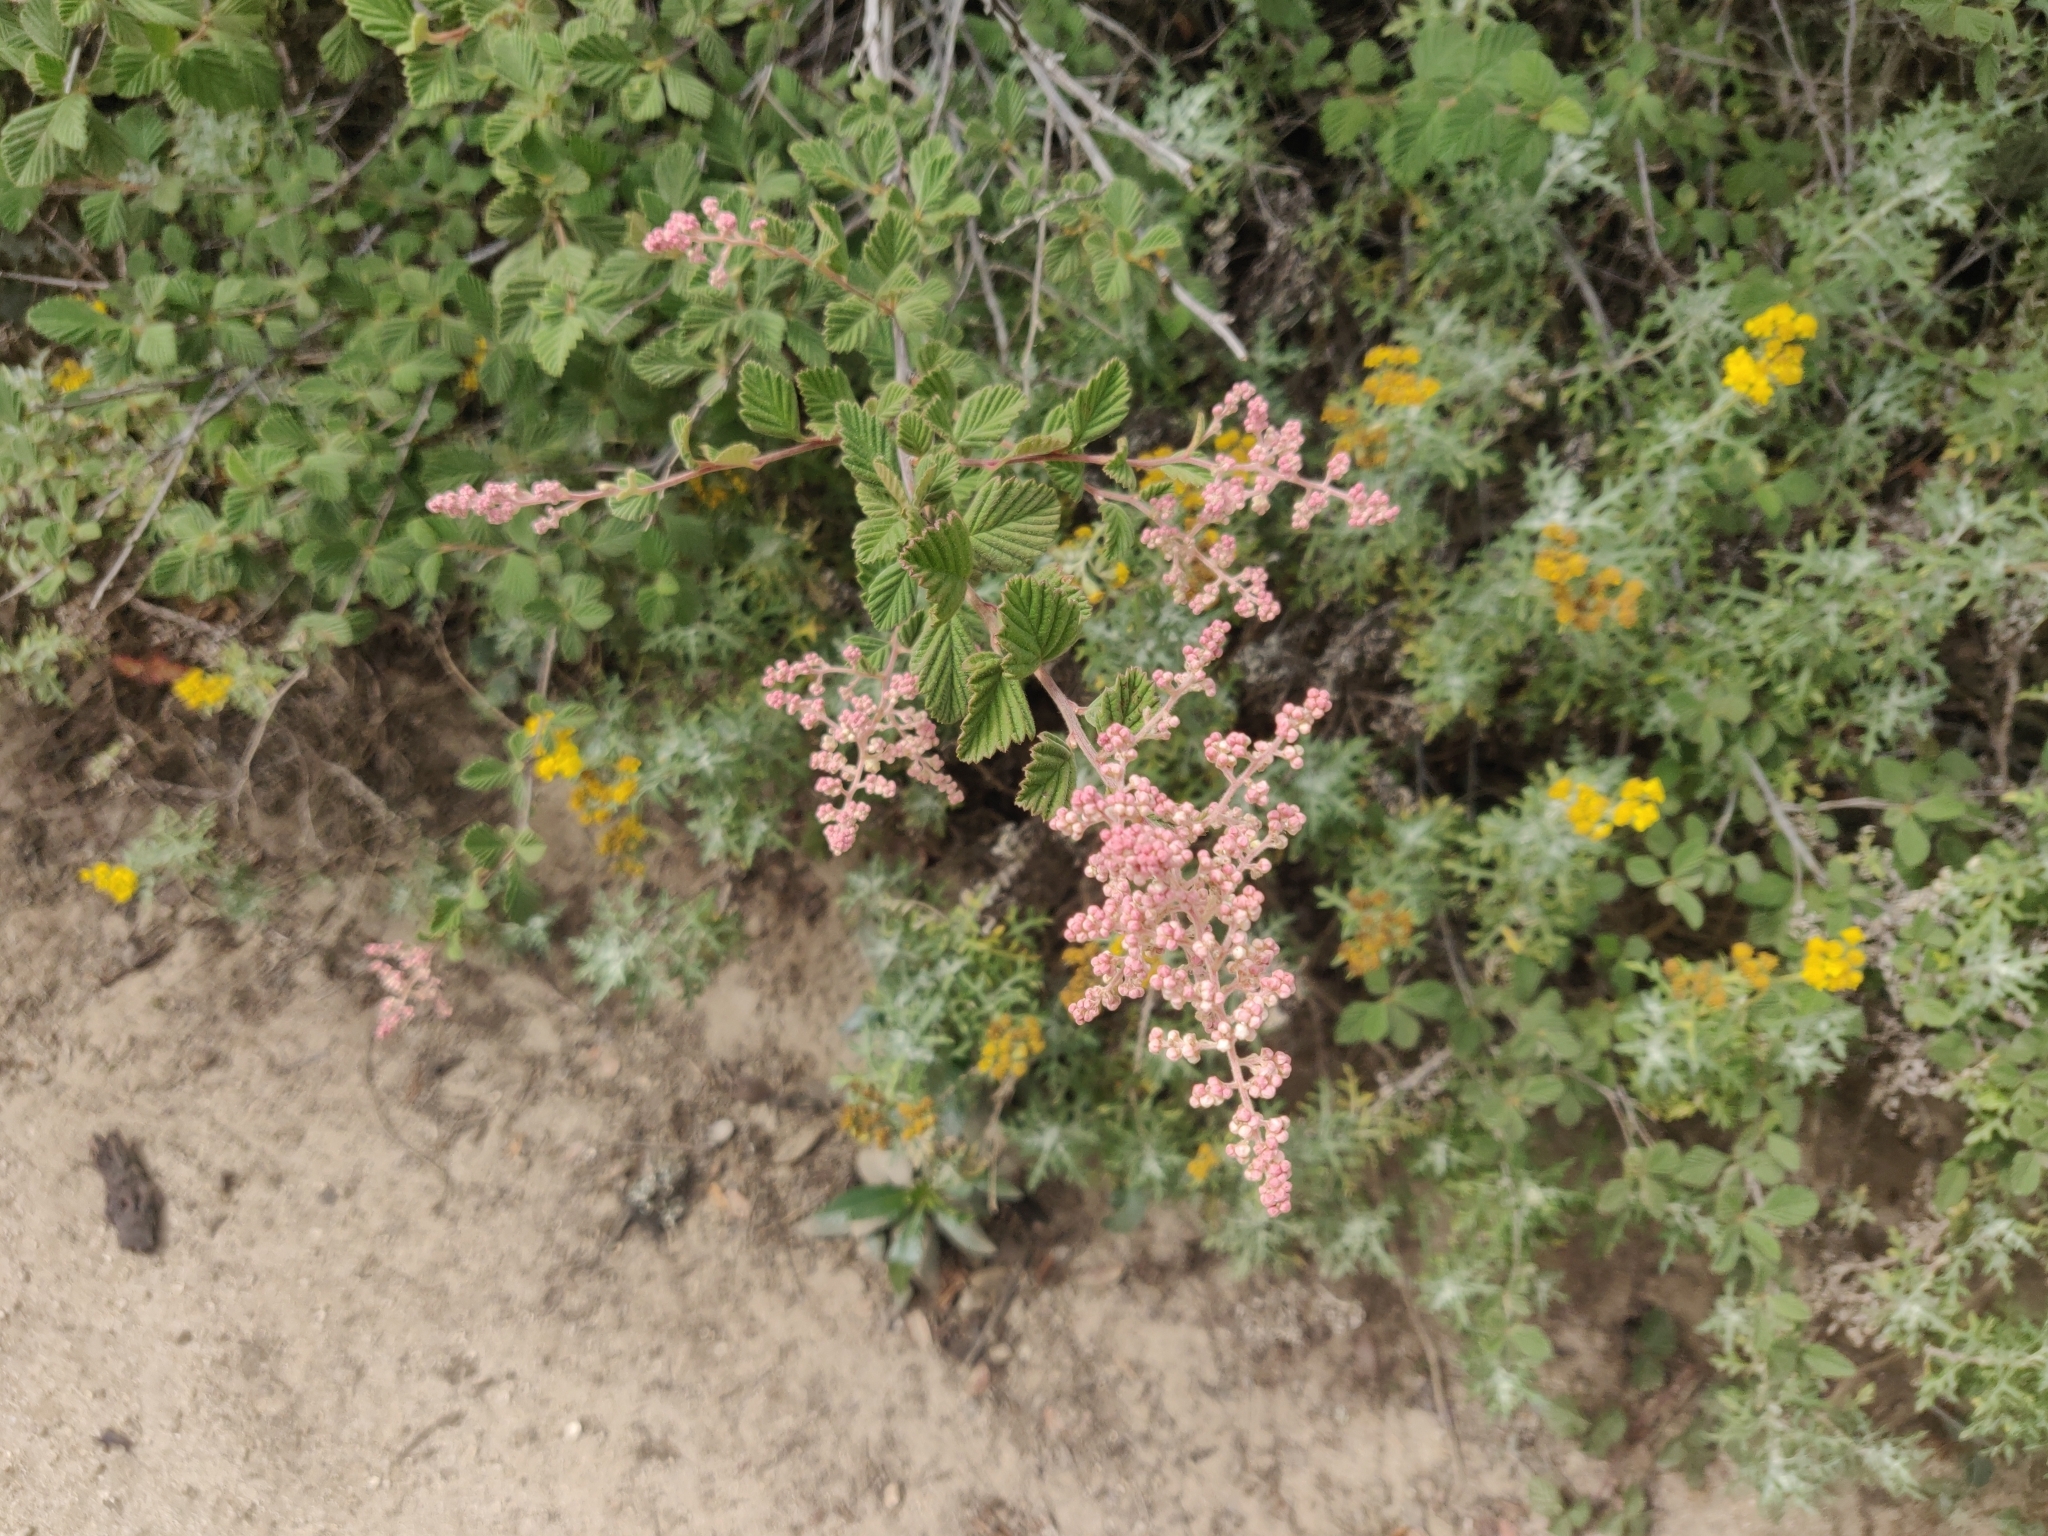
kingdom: Plantae
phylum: Tracheophyta
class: Magnoliopsida
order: Rosales
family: Rosaceae
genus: Holodiscus
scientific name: Holodiscus discolor
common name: Oceanspray
